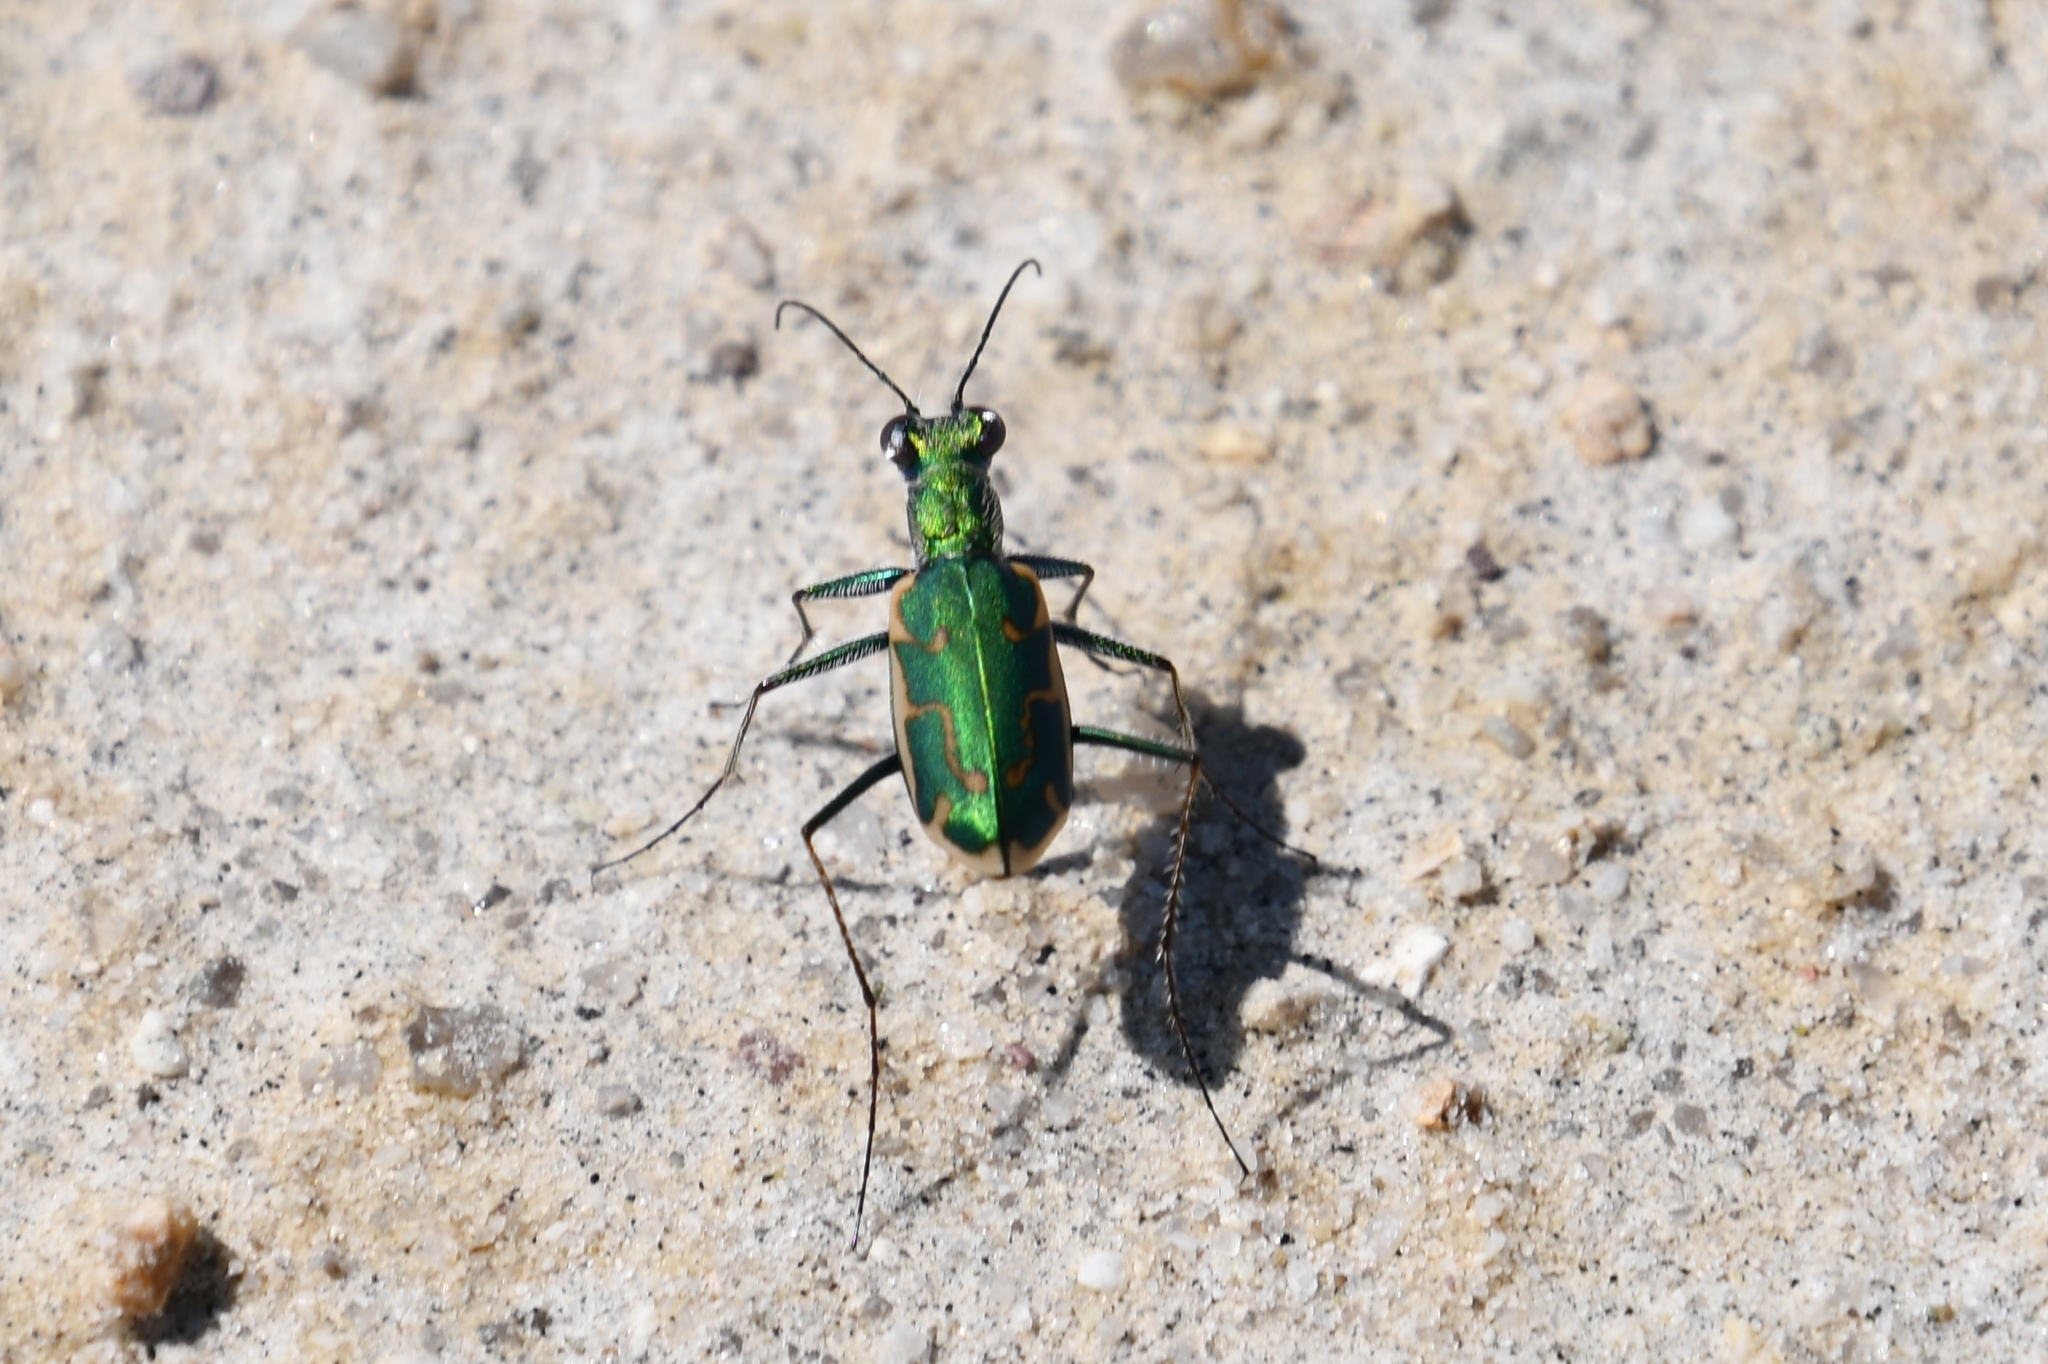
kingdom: Animalia
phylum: Arthropoda
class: Insecta
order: Coleoptera
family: Carabidae
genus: Ellipsoptera
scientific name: Ellipsoptera rubicunda
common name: Aridland tiger beetle
